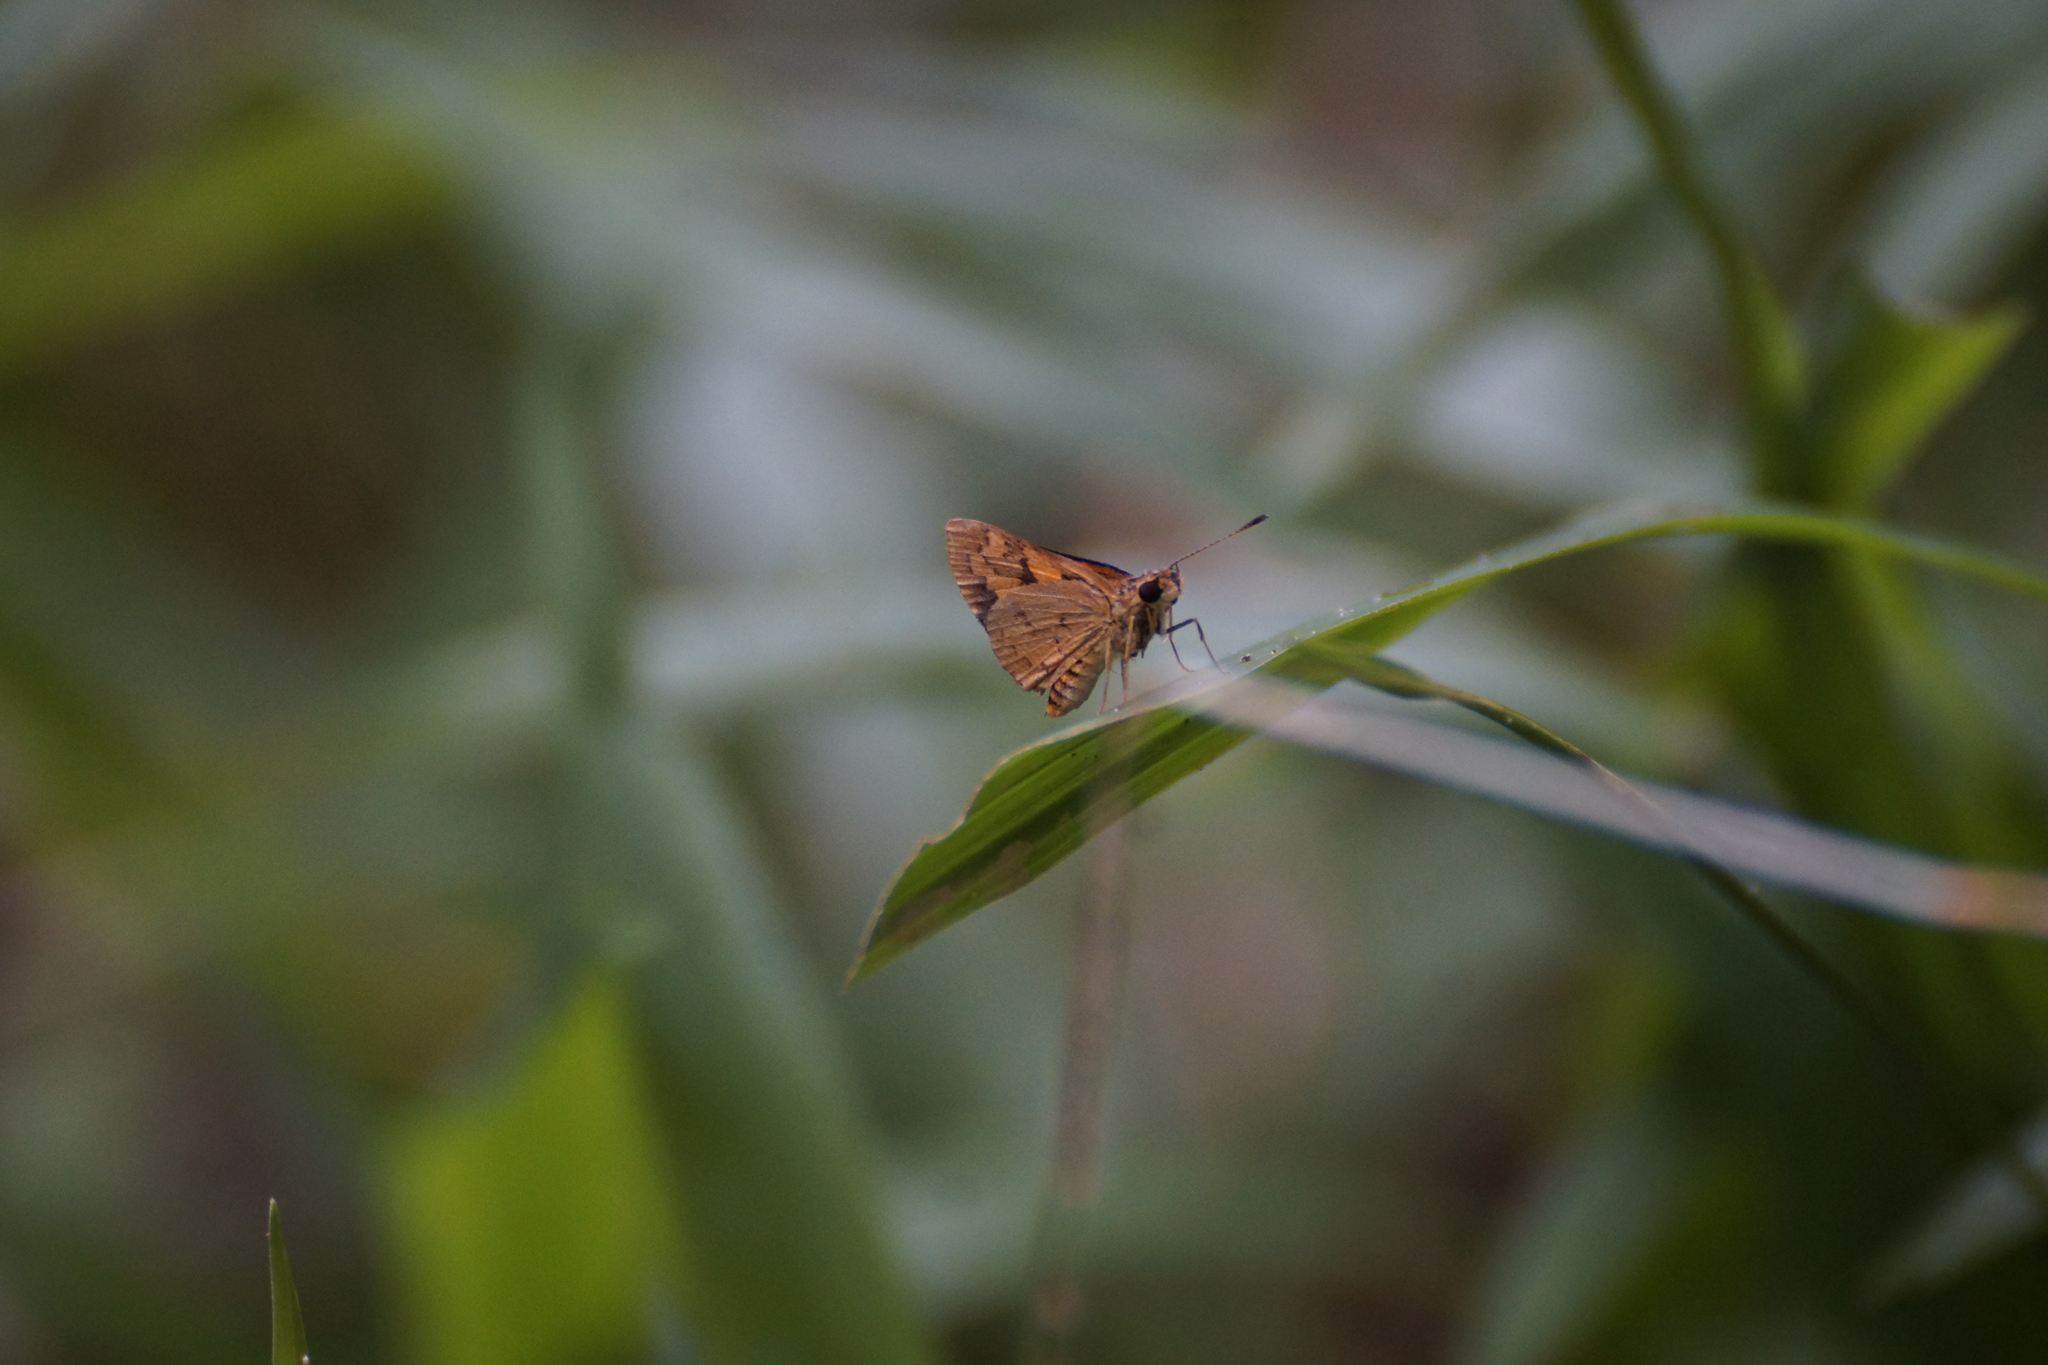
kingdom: Animalia
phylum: Arthropoda
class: Insecta
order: Lepidoptera
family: Hesperiidae
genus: Ocybadistes
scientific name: Ocybadistes ardea
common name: Dark orange dart
